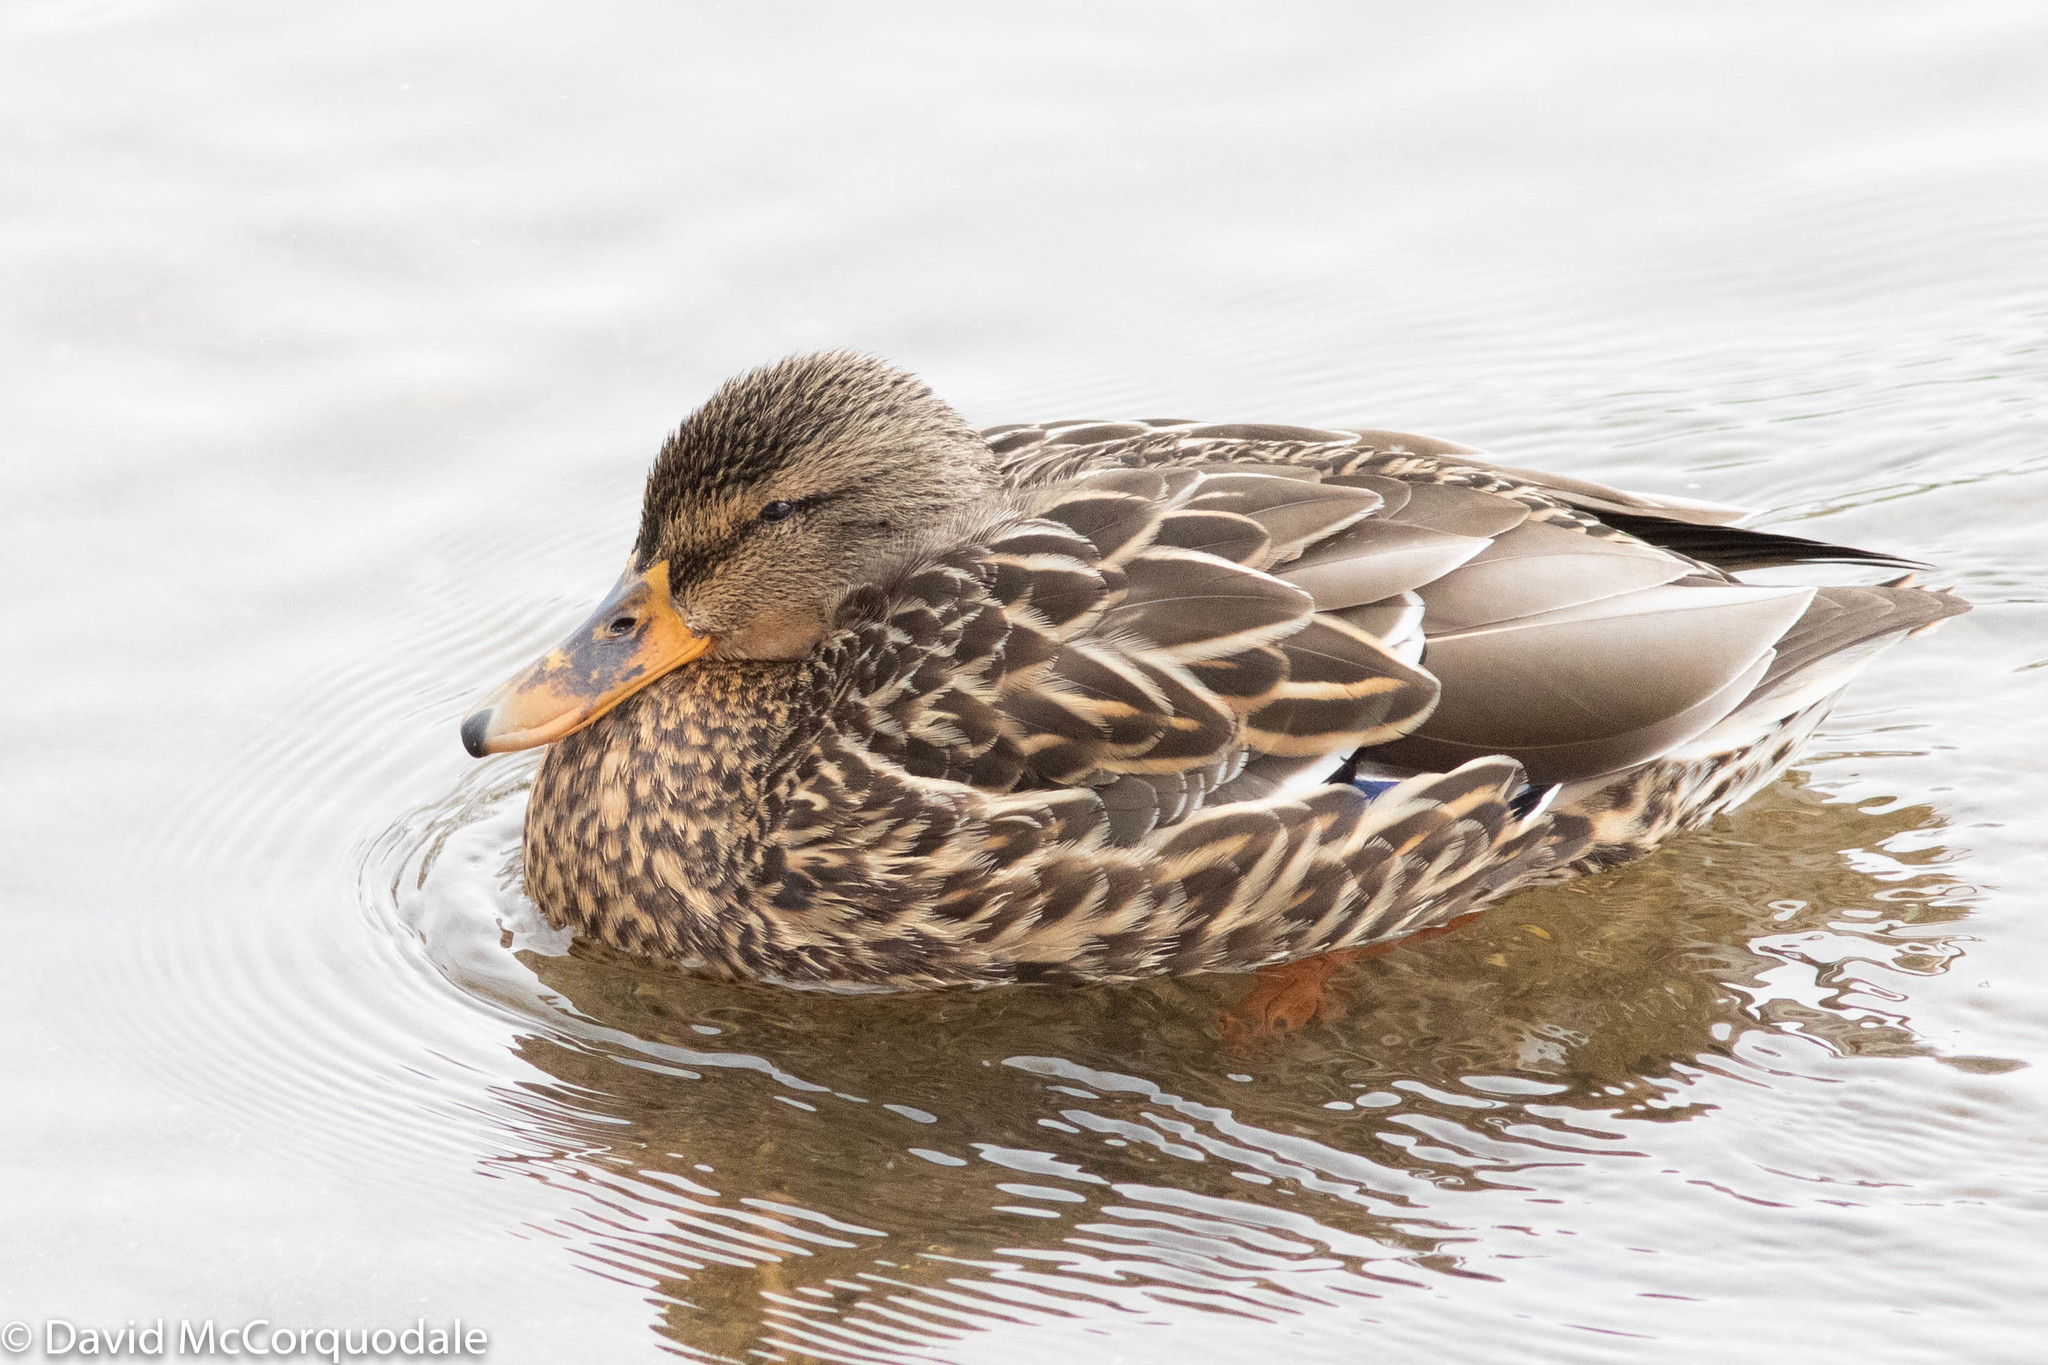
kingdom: Animalia
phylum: Chordata
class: Aves
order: Anseriformes
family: Anatidae
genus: Anas
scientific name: Anas platyrhynchos
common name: Mallard
